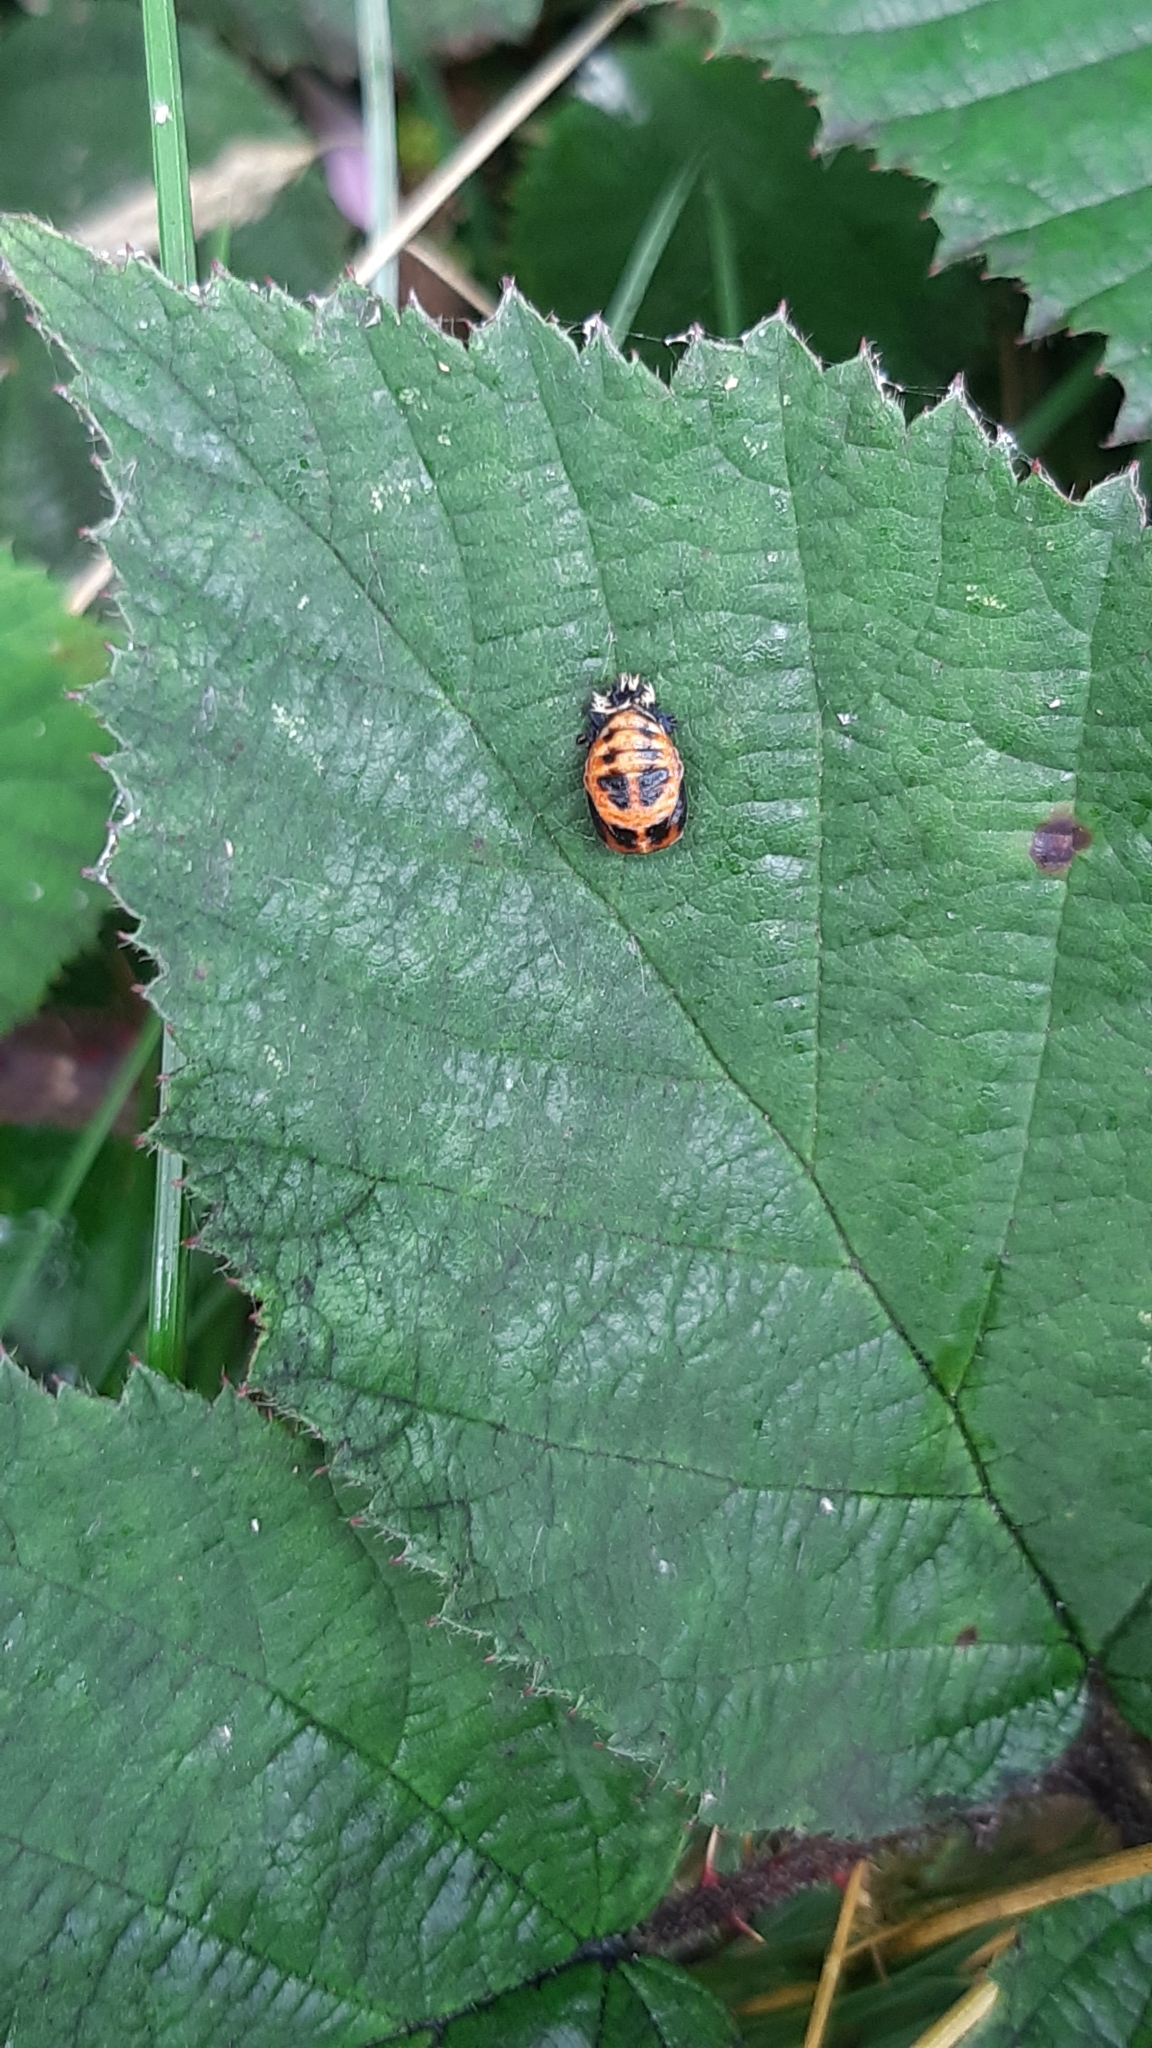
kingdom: Animalia
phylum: Arthropoda
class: Insecta
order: Coleoptera
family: Coccinellidae
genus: Harmonia
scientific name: Harmonia axyridis
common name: Harlequin ladybird
